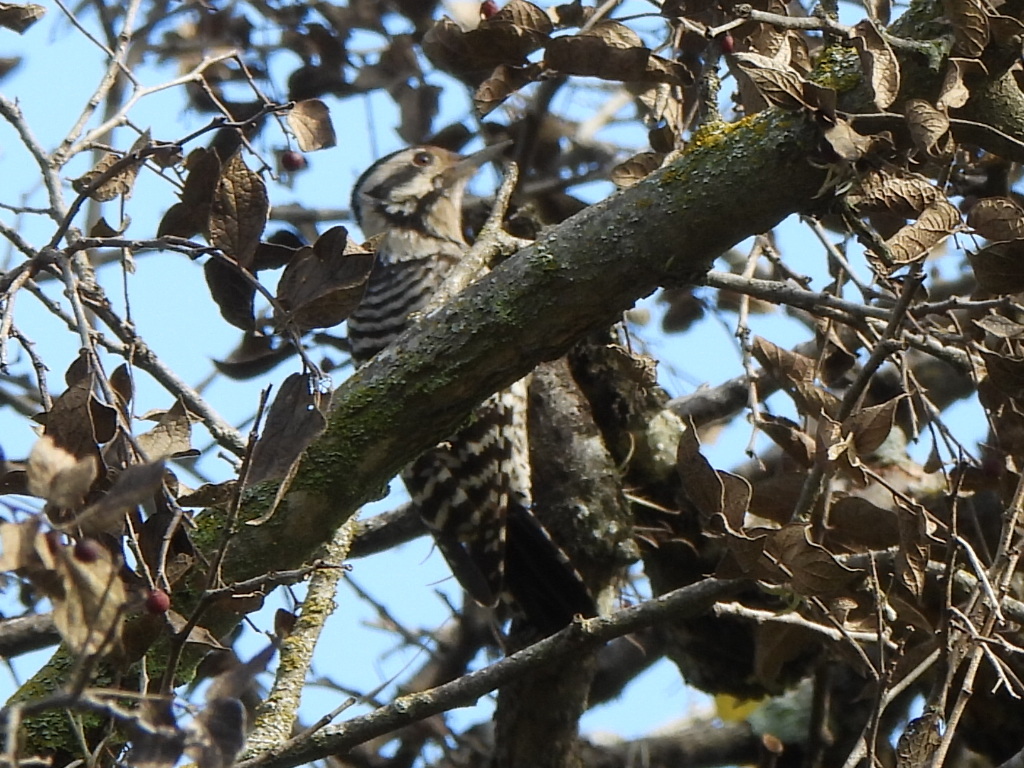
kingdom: Animalia
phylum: Chordata
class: Aves
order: Piciformes
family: Picidae
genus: Dryobates
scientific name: Dryobates scalaris
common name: Ladder-backed woodpecker
